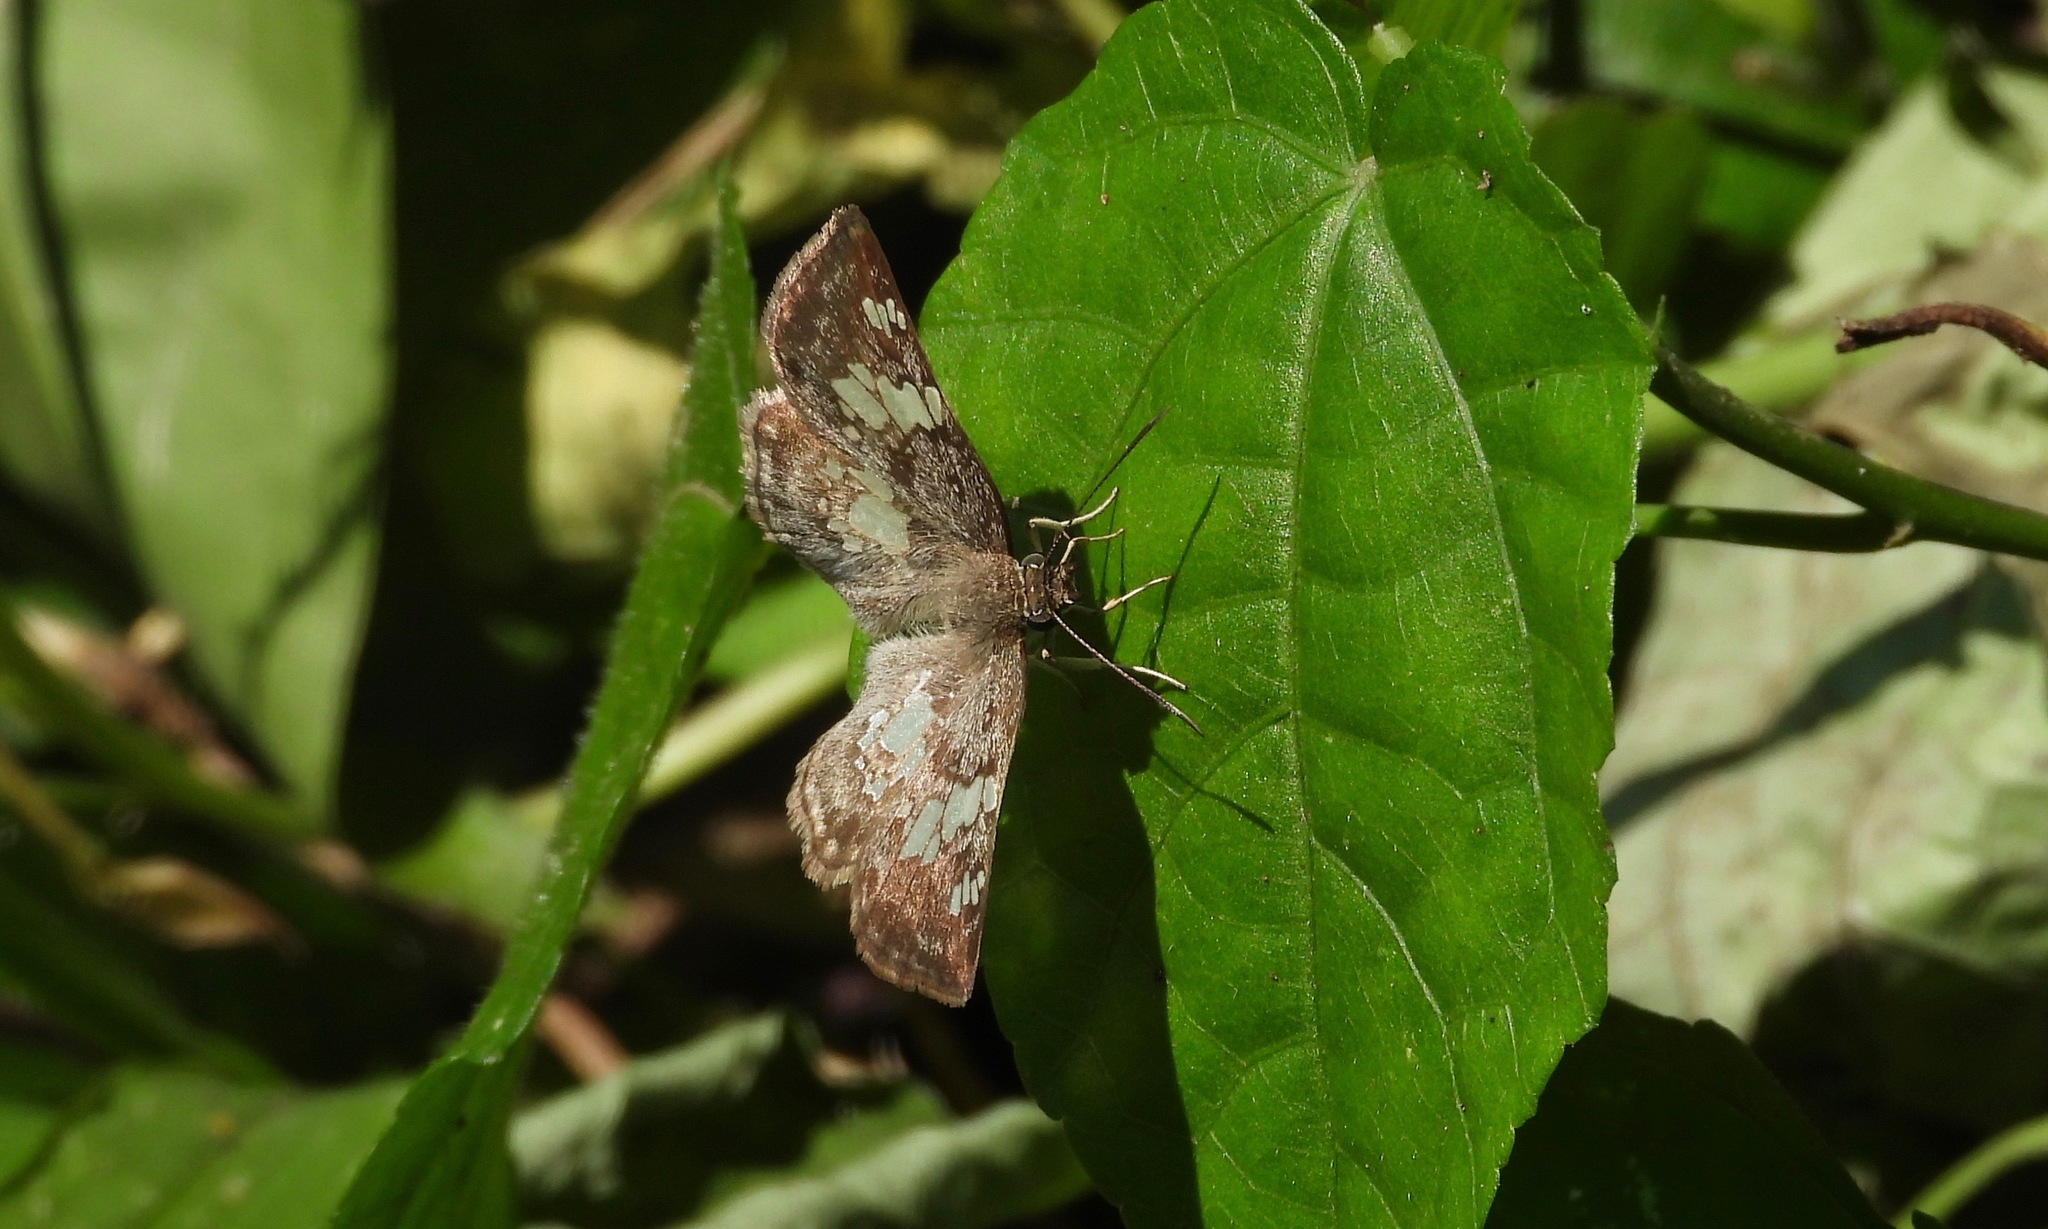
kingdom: Animalia
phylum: Arthropoda
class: Insecta
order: Lepidoptera
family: Hesperiidae
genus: Xenophanes
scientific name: Xenophanes tryxus
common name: Glassy-winged skipper
